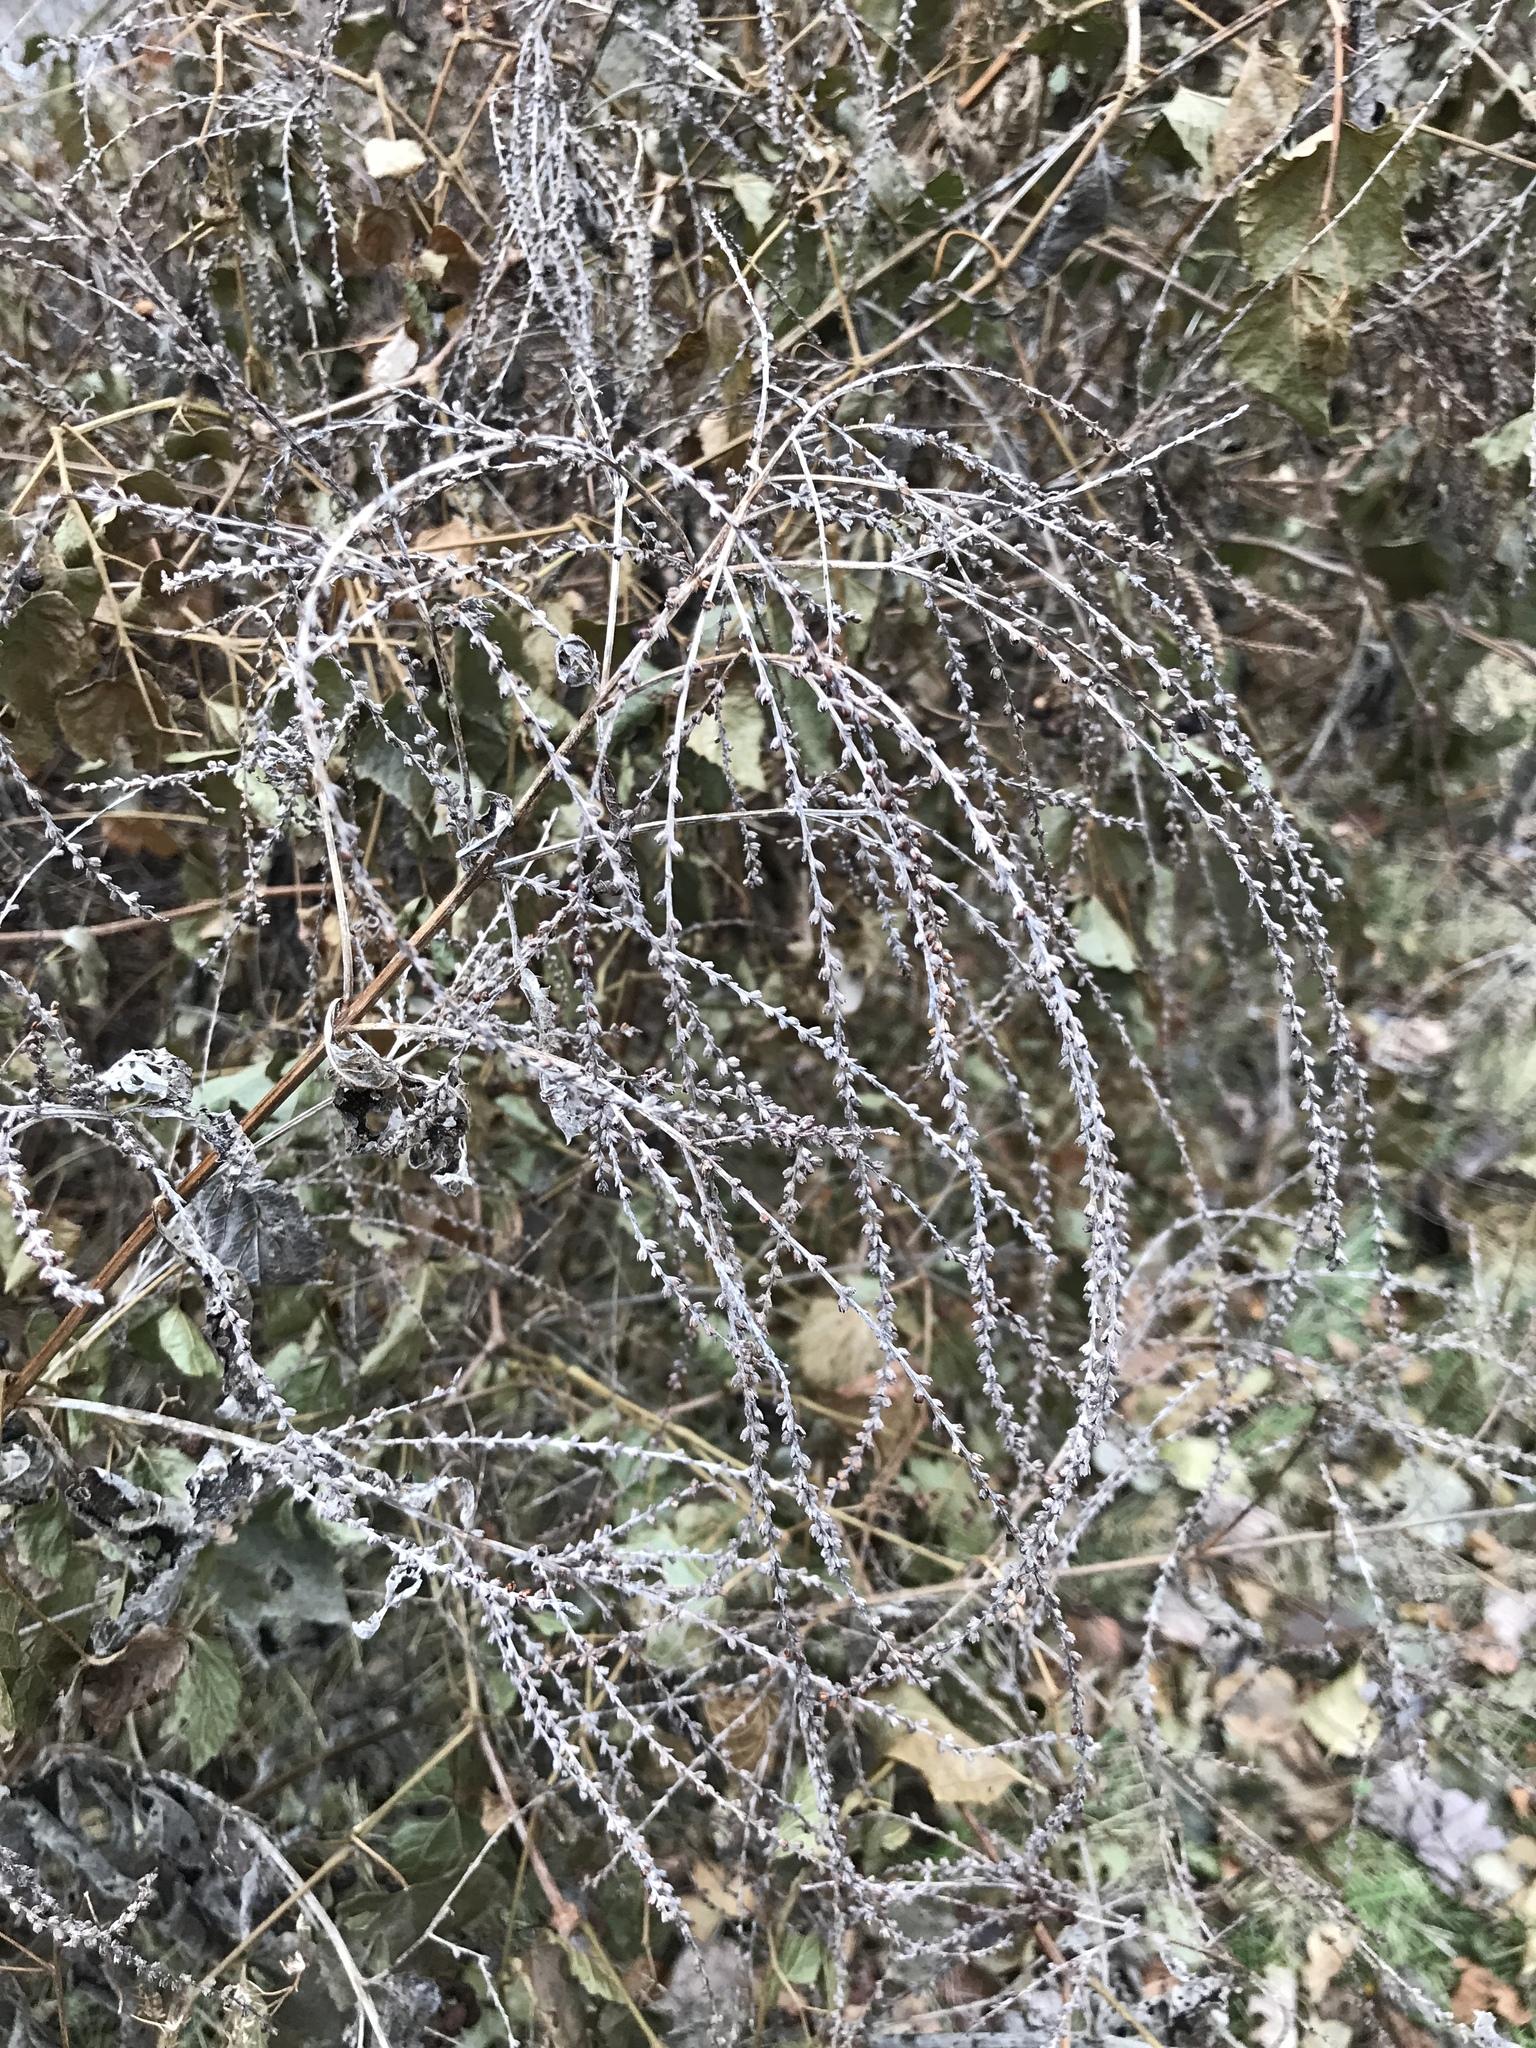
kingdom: Plantae
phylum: Tracheophyta
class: Magnoliopsida
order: Lamiales
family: Verbenaceae
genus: Verbena
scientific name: Verbena urticifolia
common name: Nettle-leaved vervain
